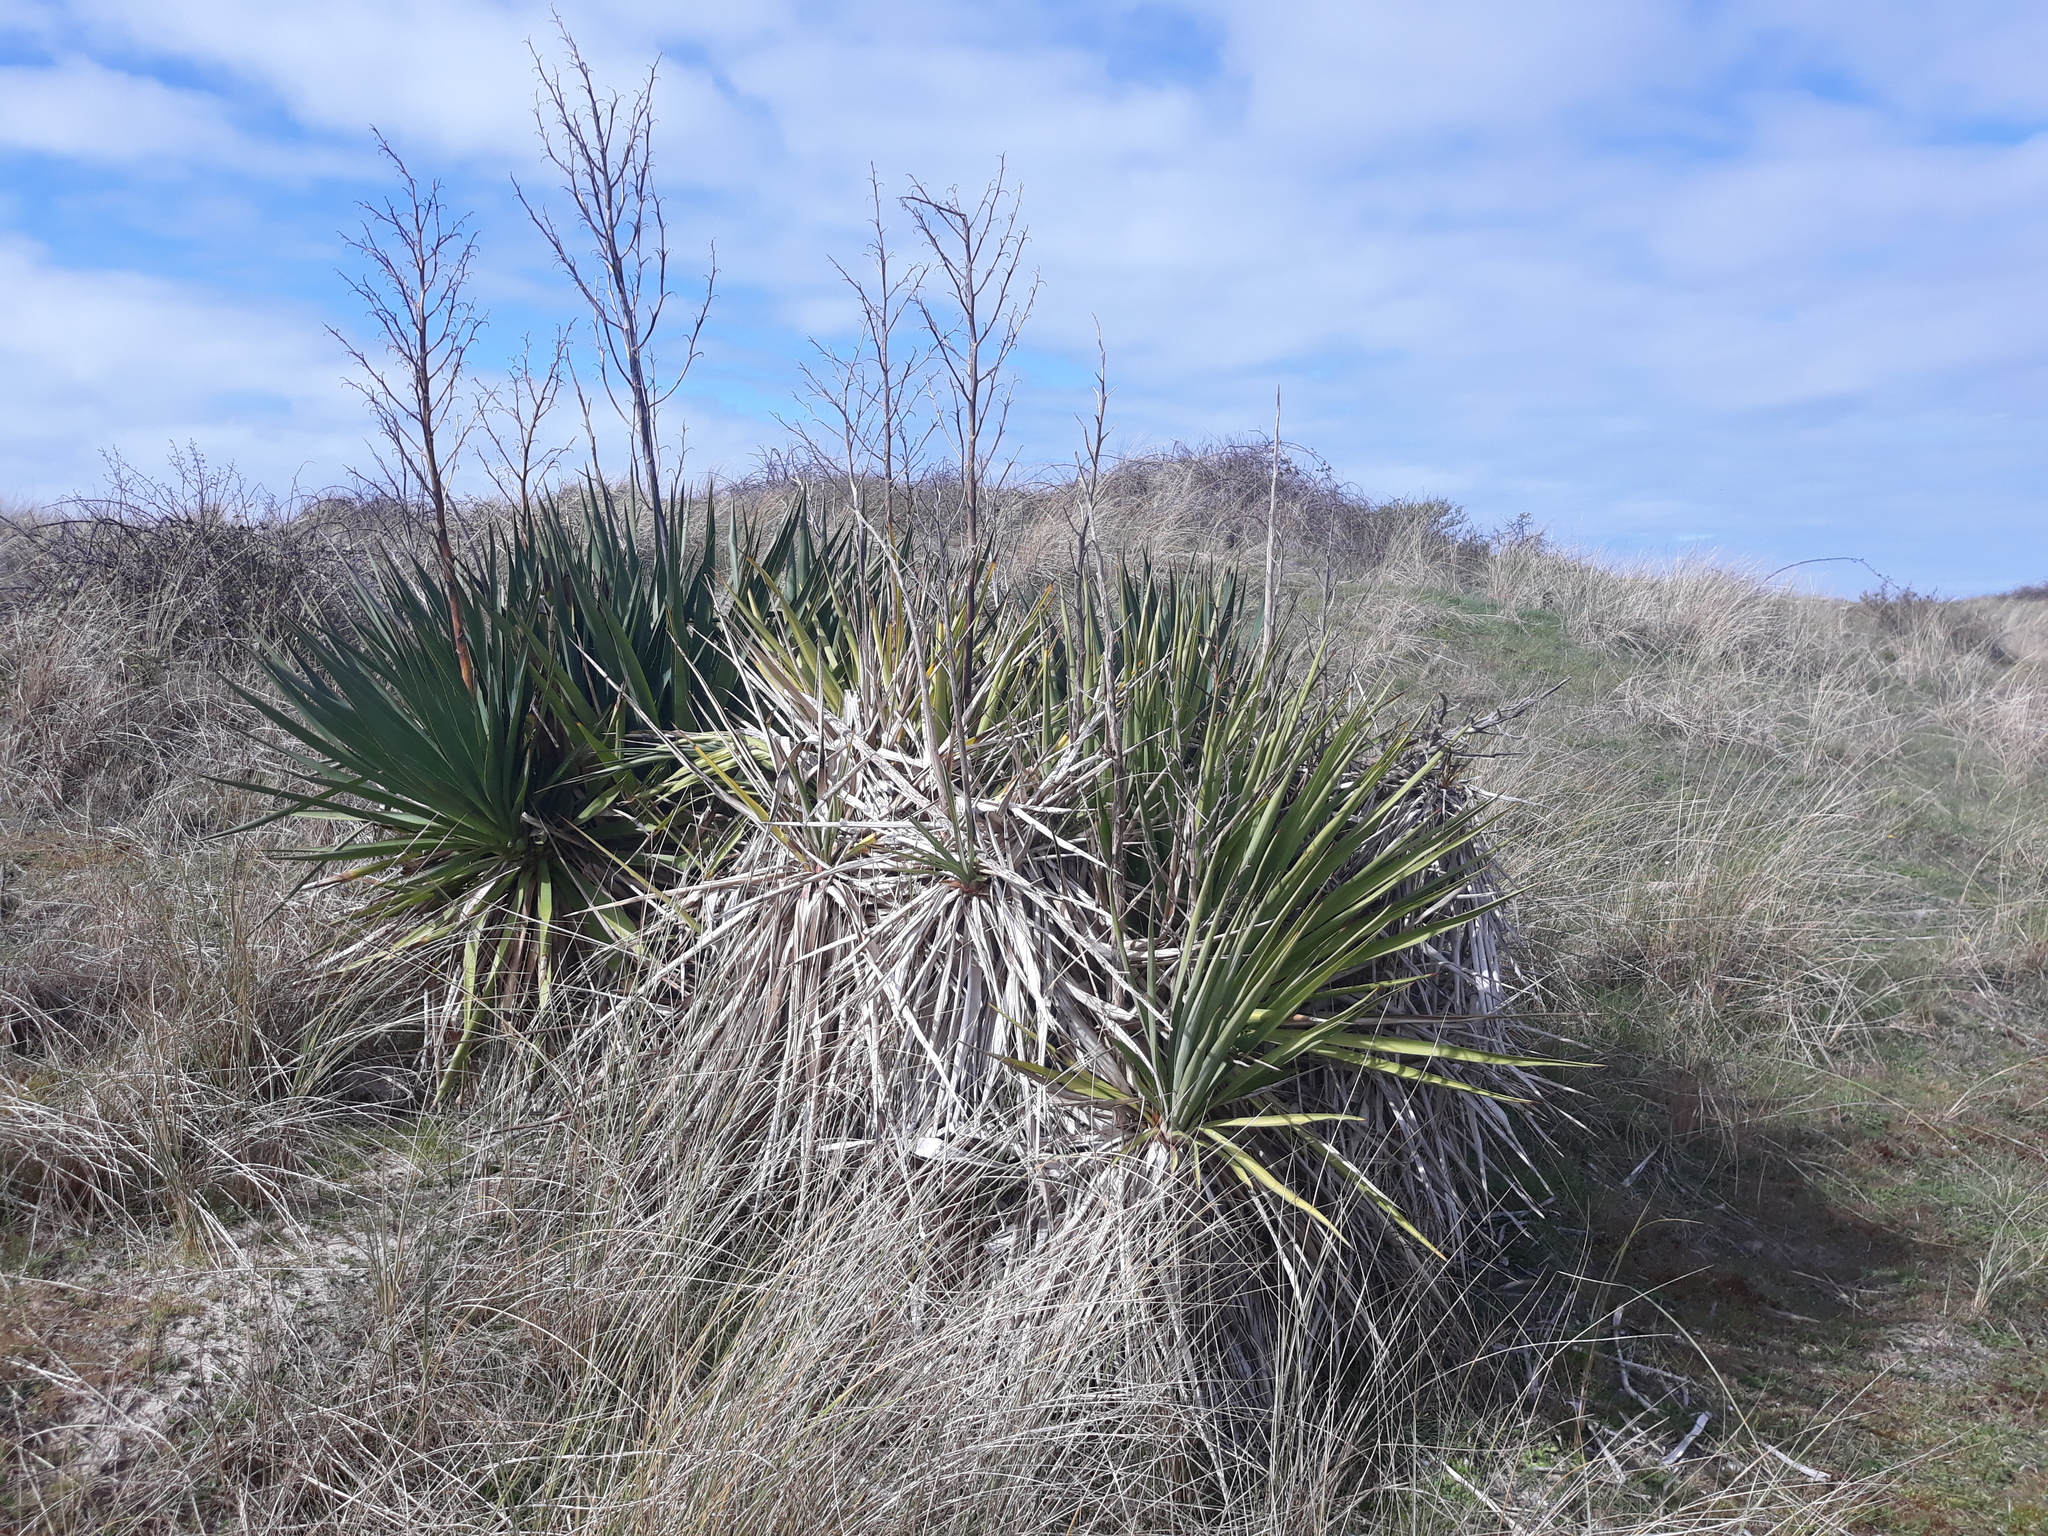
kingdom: Plantae
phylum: Tracheophyta
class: Liliopsida
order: Asparagales
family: Asparagaceae
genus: Yucca
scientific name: Yucca gloriosa
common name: Spanish-dagger
